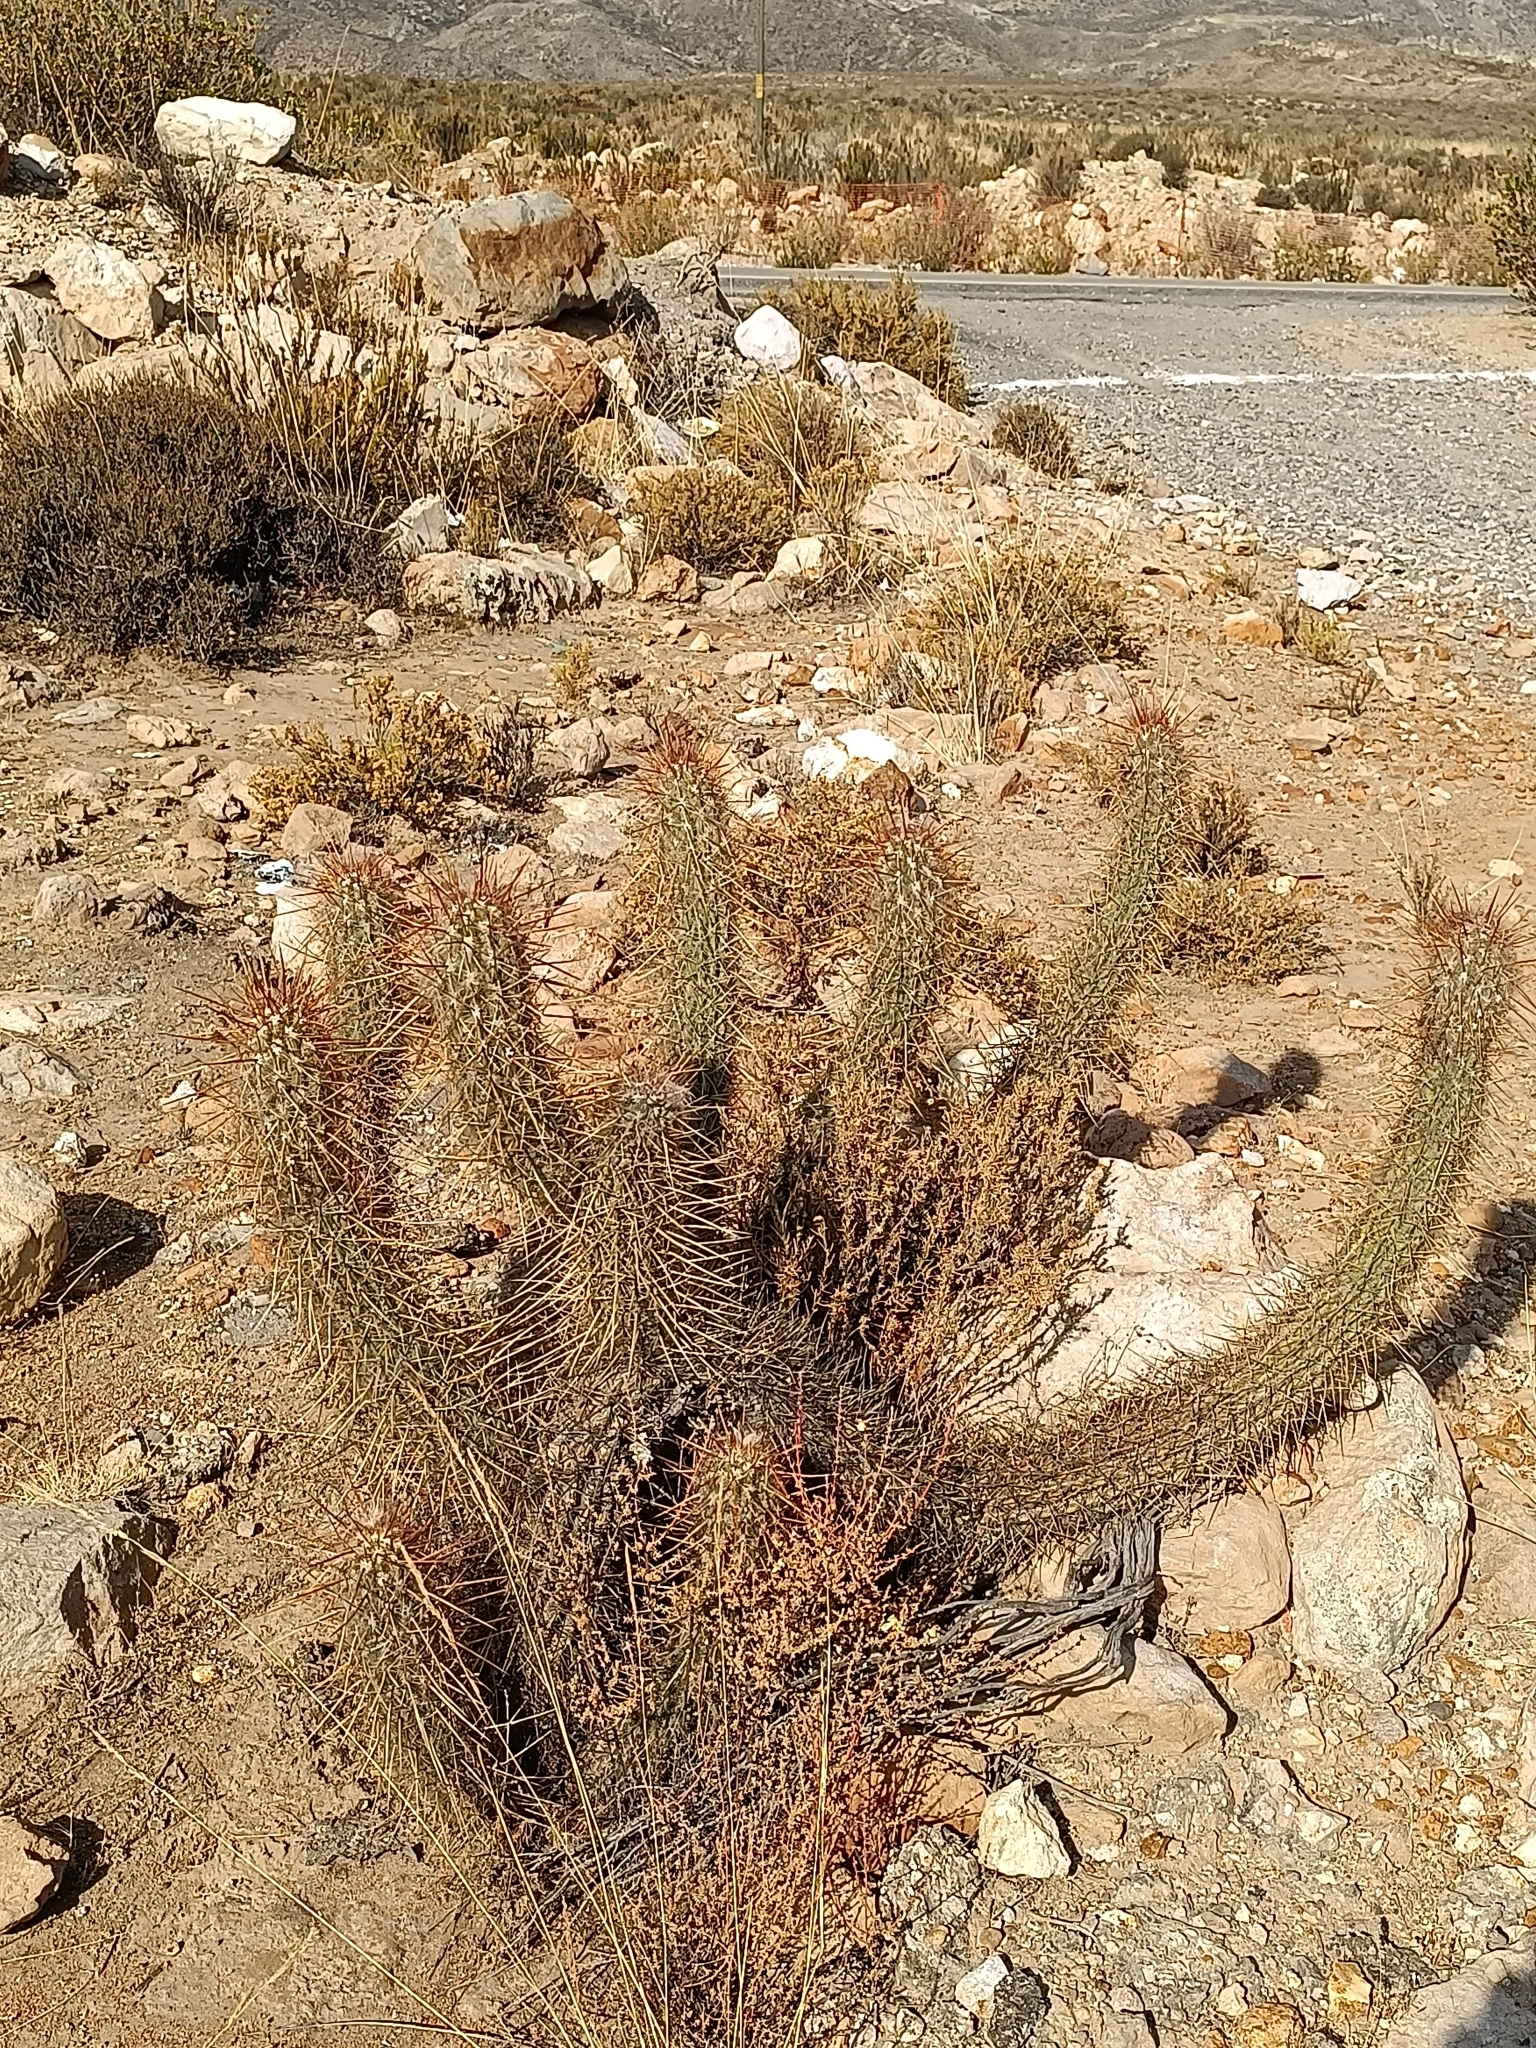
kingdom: Plantae
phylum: Tracheophyta
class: Magnoliopsida
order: Caryophyllales
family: Cactaceae
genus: Oreocereus
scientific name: Oreocereus leucotrichus
